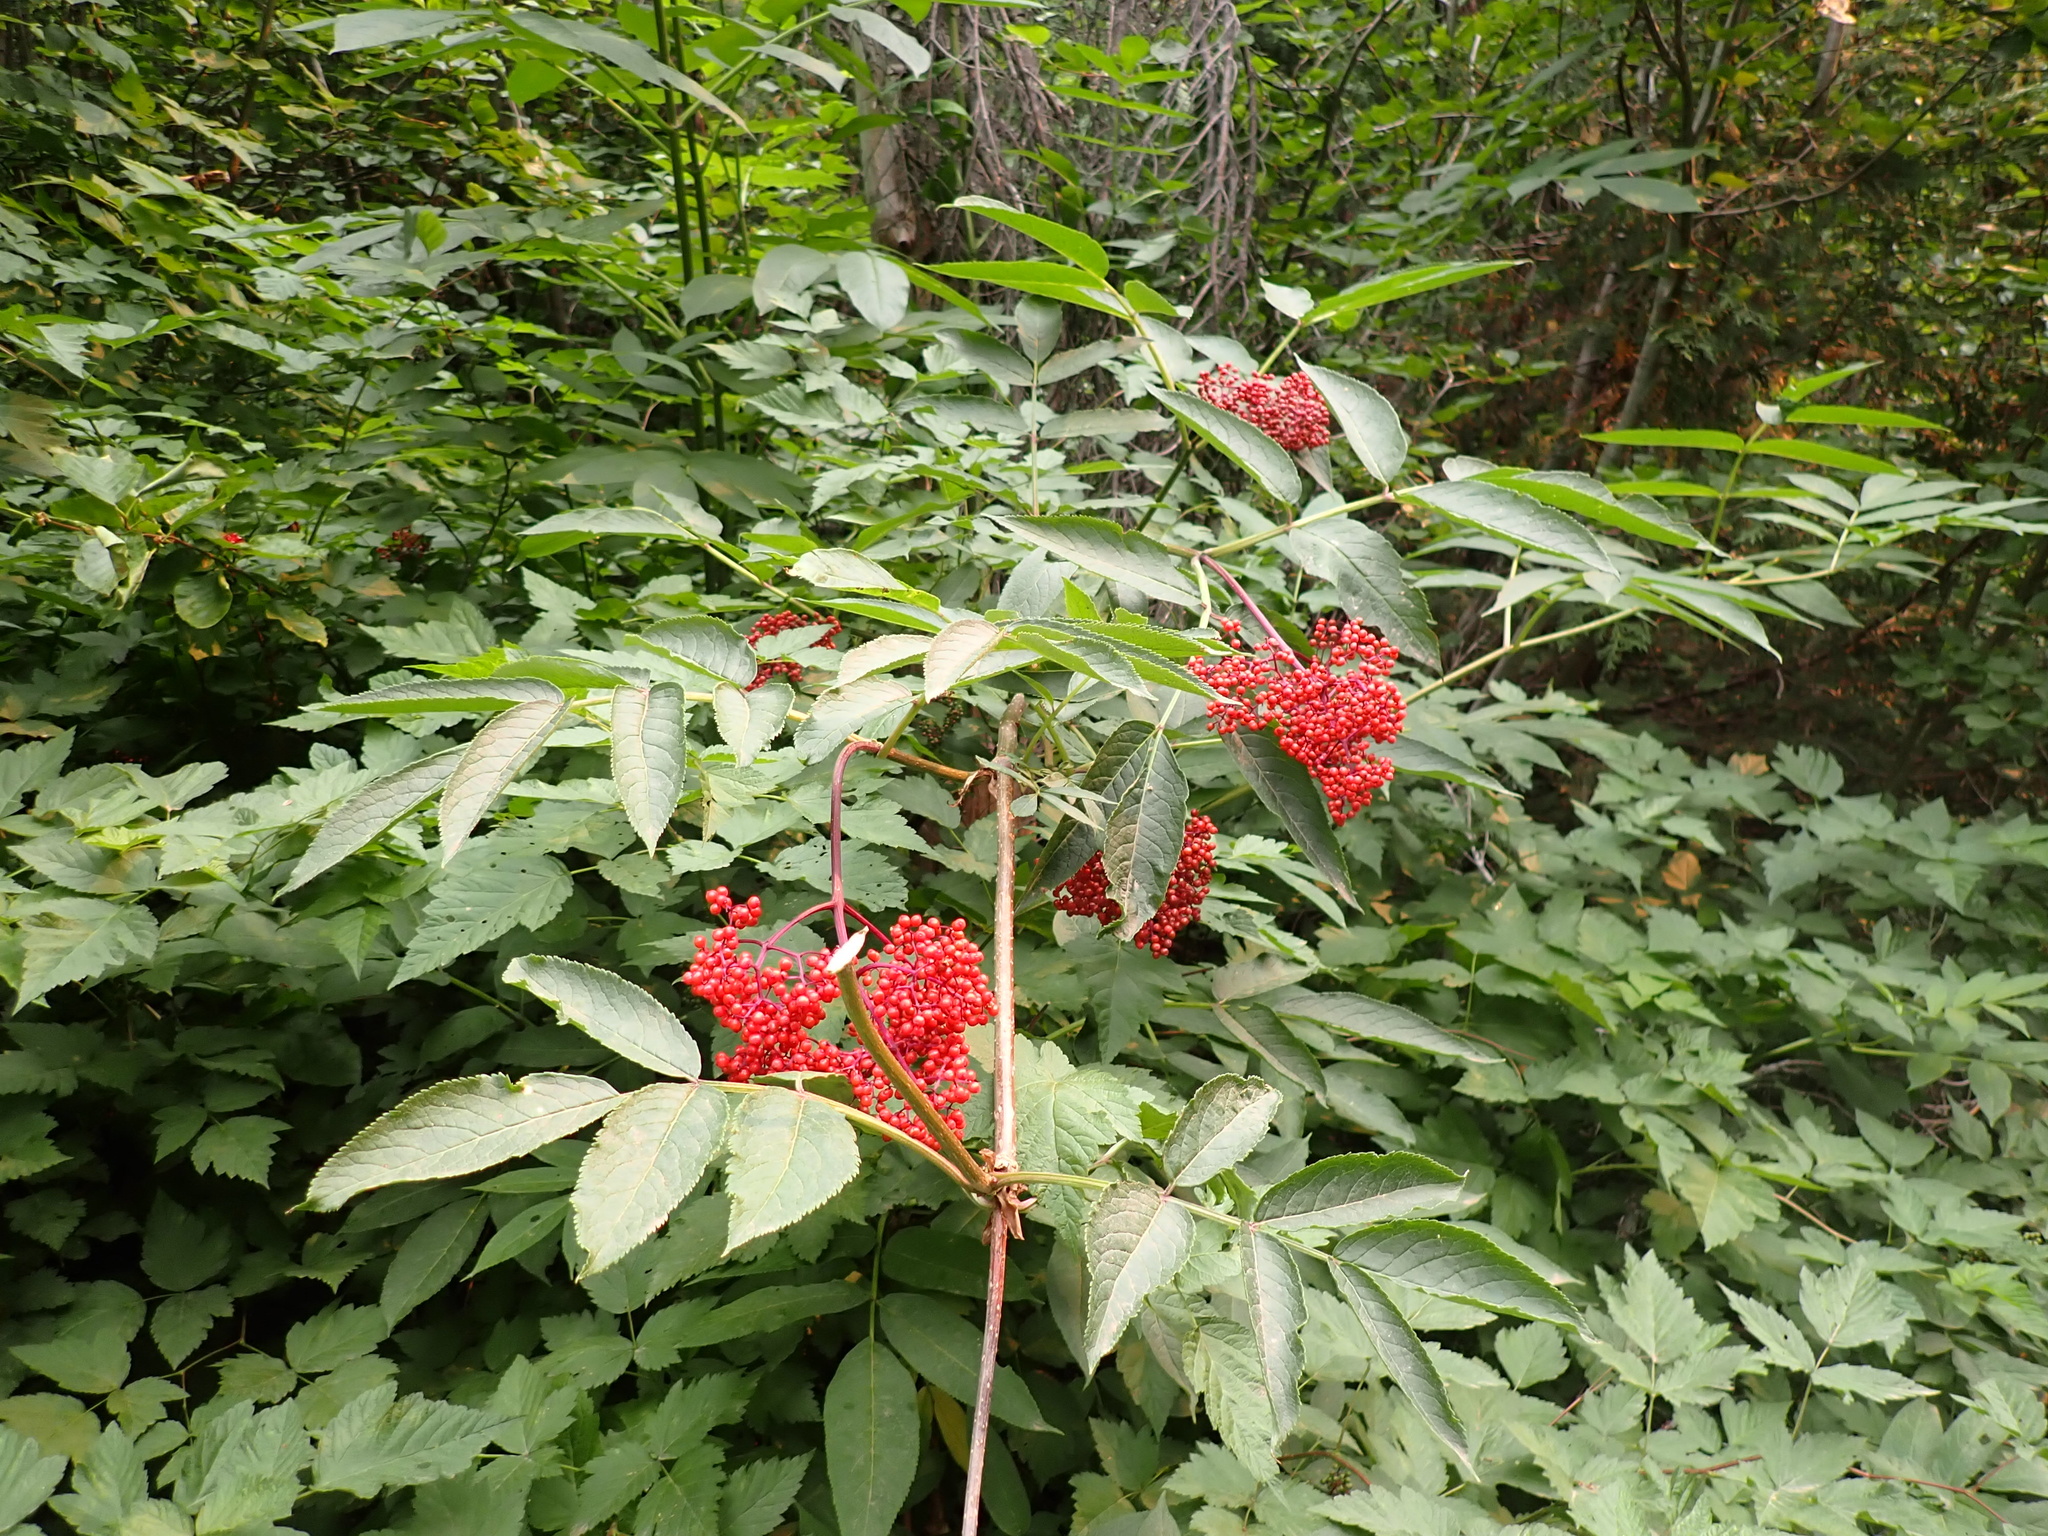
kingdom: Plantae
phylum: Tracheophyta
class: Magnoliopsida
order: Dipsacales
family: Viburnaceae
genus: Sambucus
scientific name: Sambucus racemosa
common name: Red-berried elder
